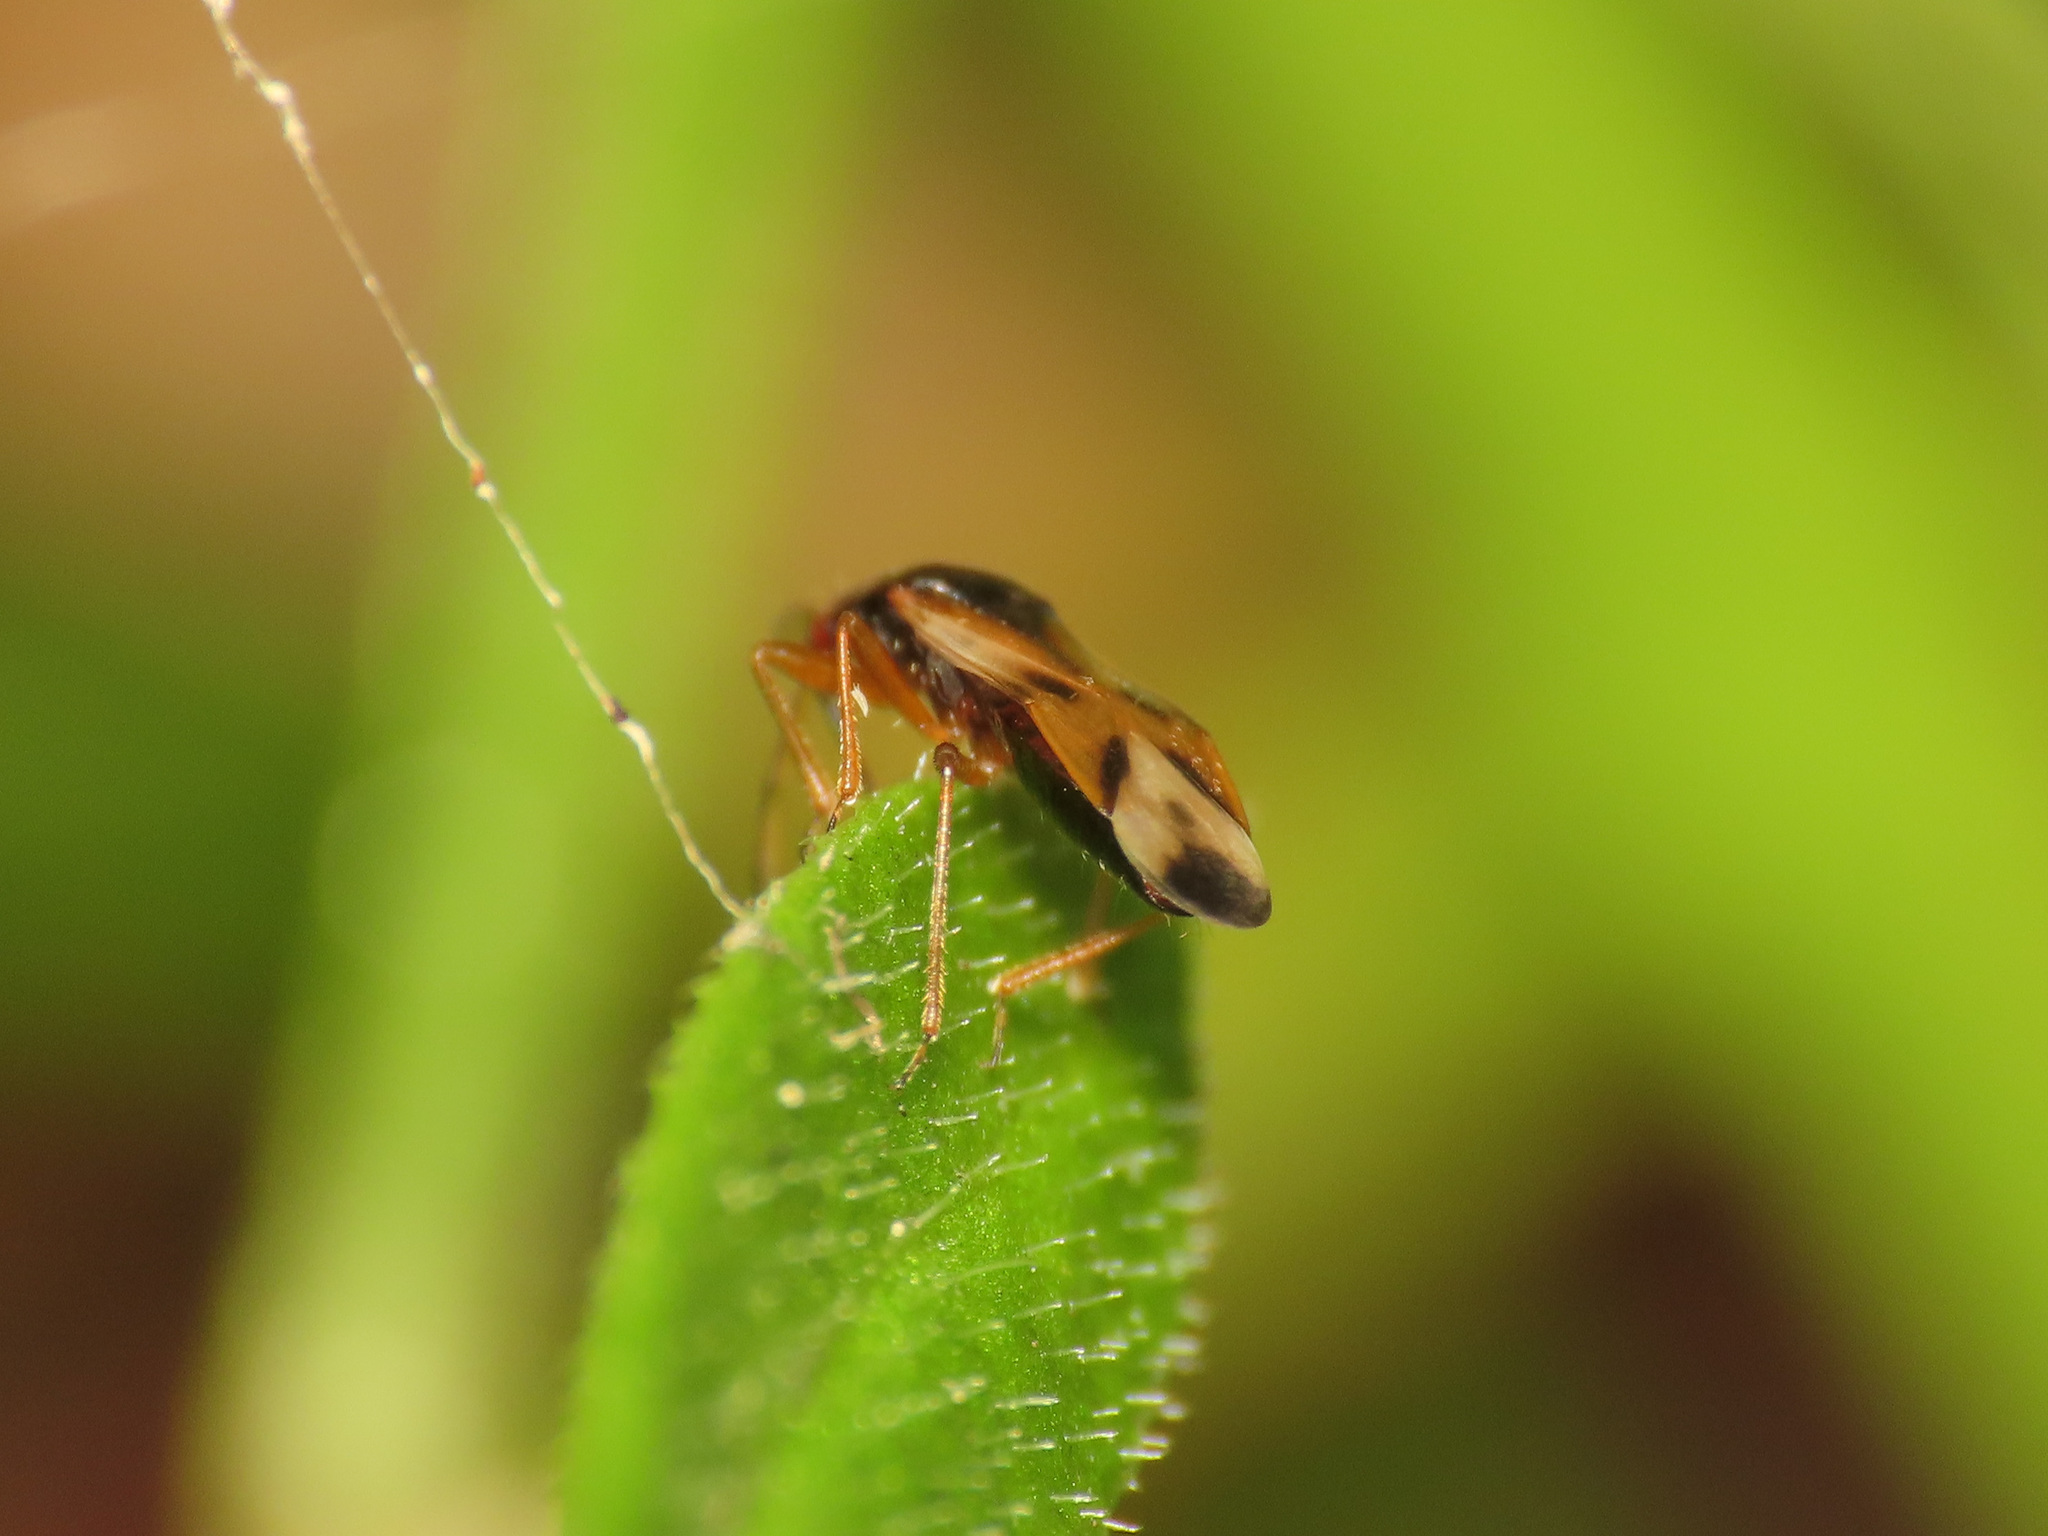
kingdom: Animalia
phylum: Arthropoda
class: Insecta
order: Hemiptera
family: Anthocoridae
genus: Anthocoris
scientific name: Anthocoris nemorum
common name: Minute pirate bug
